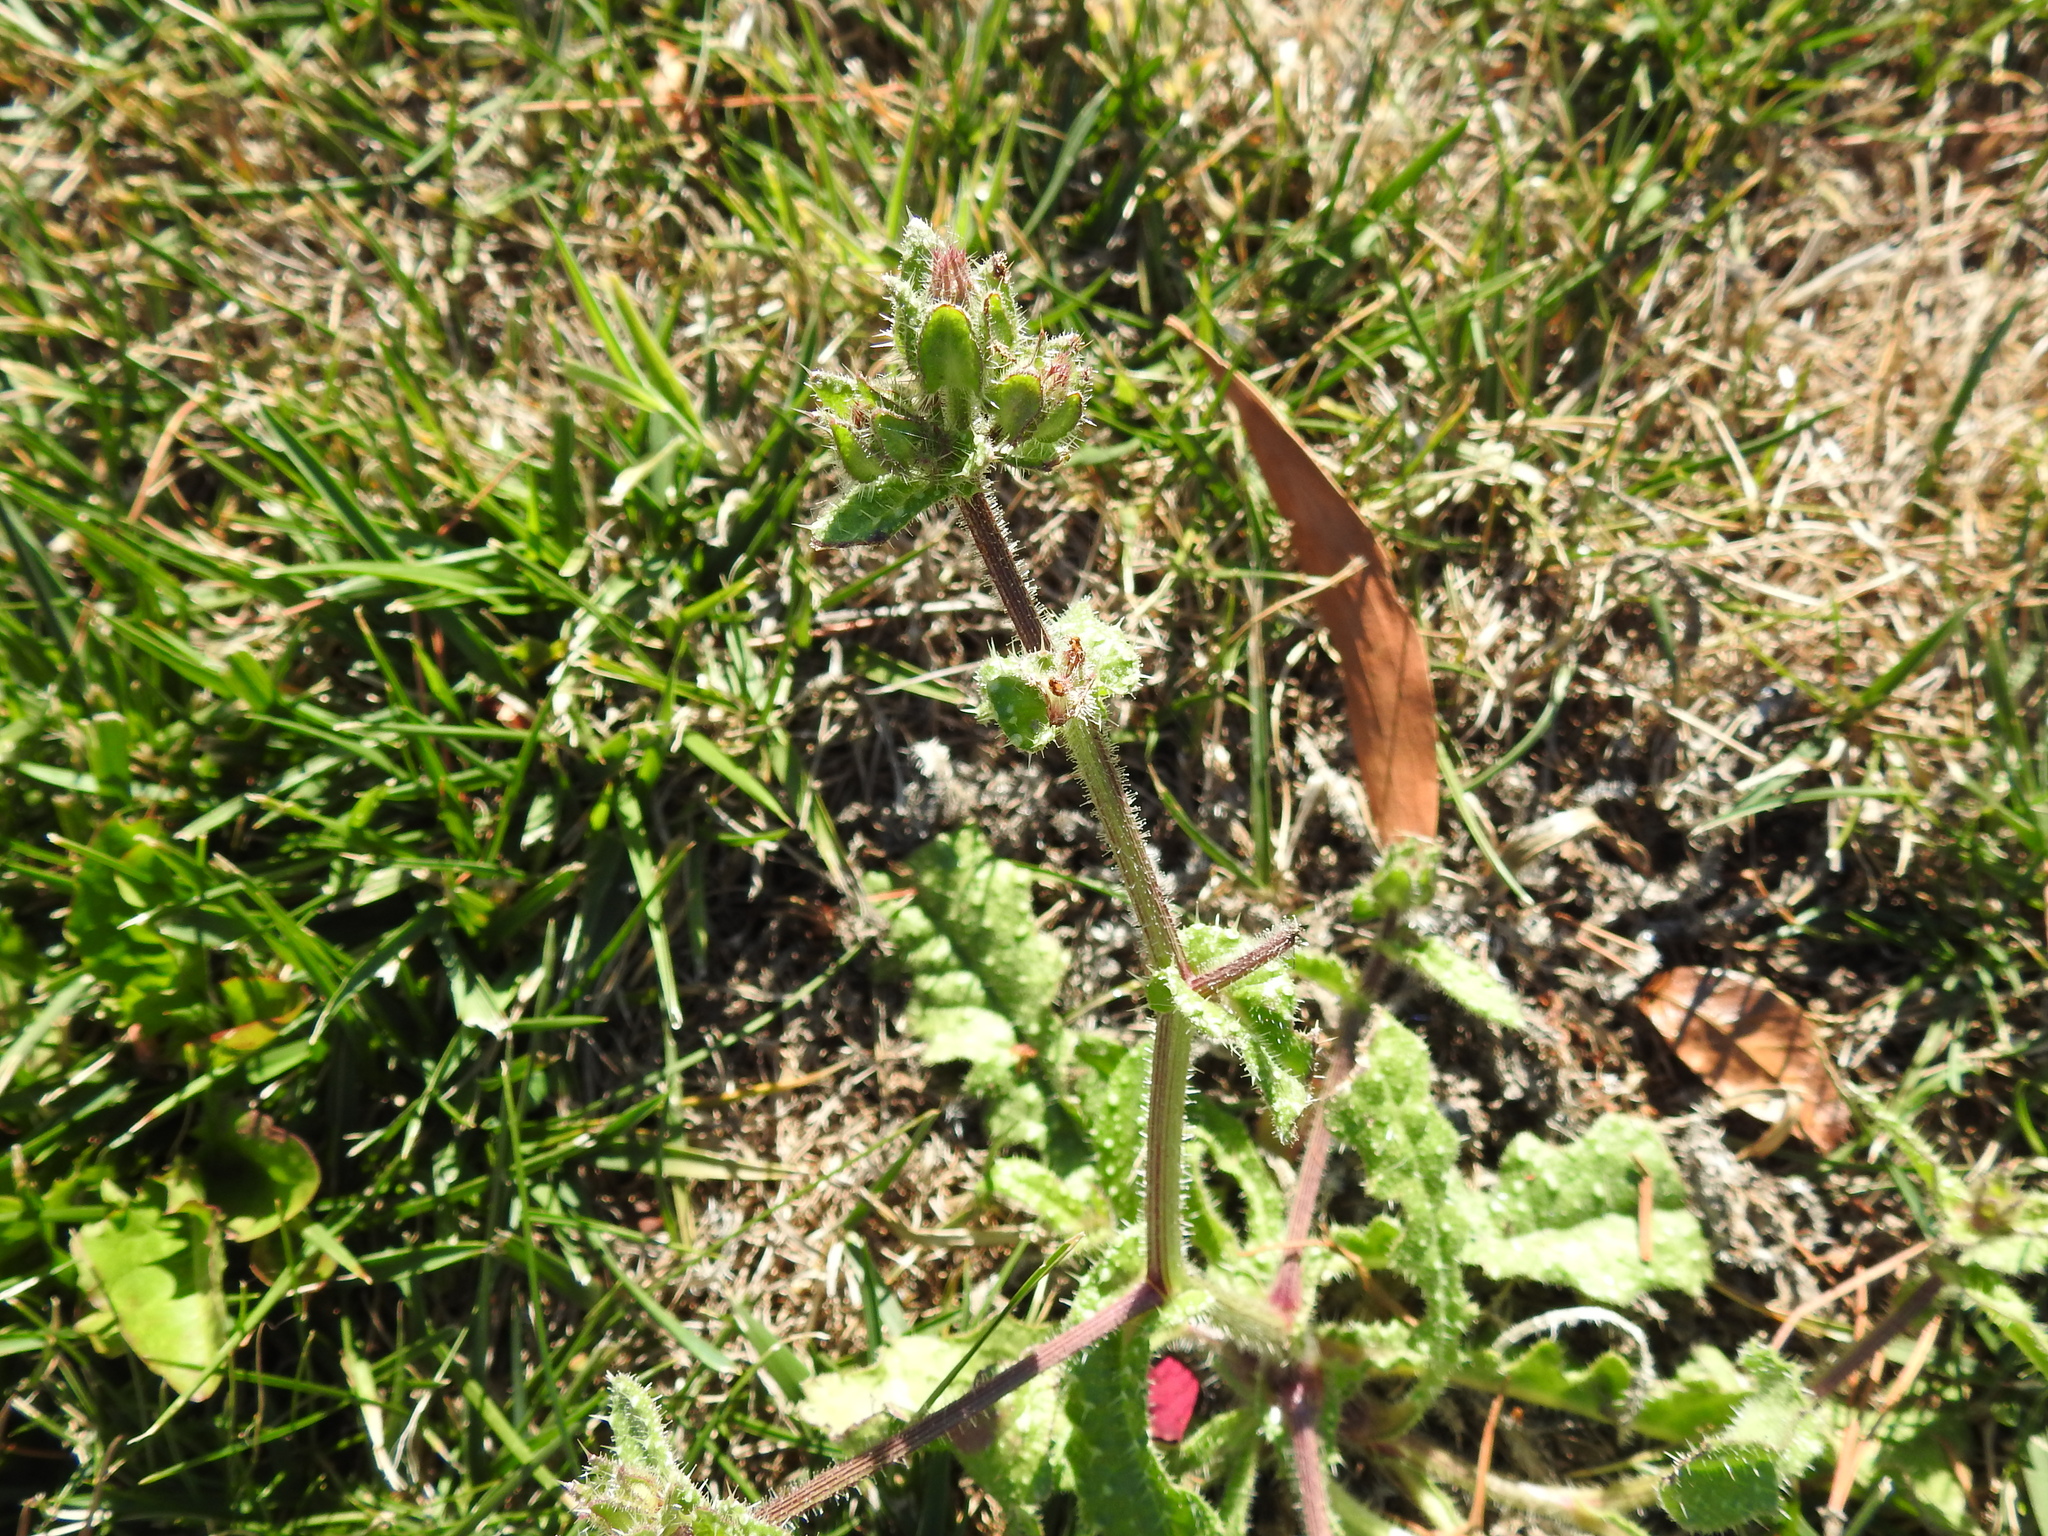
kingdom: Plantae
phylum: Tracheophyta
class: Magnoliopsida
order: Asterales
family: Asteraceae
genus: Helminthotheca
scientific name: Helminthotheca echioides
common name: Ox-tongue
